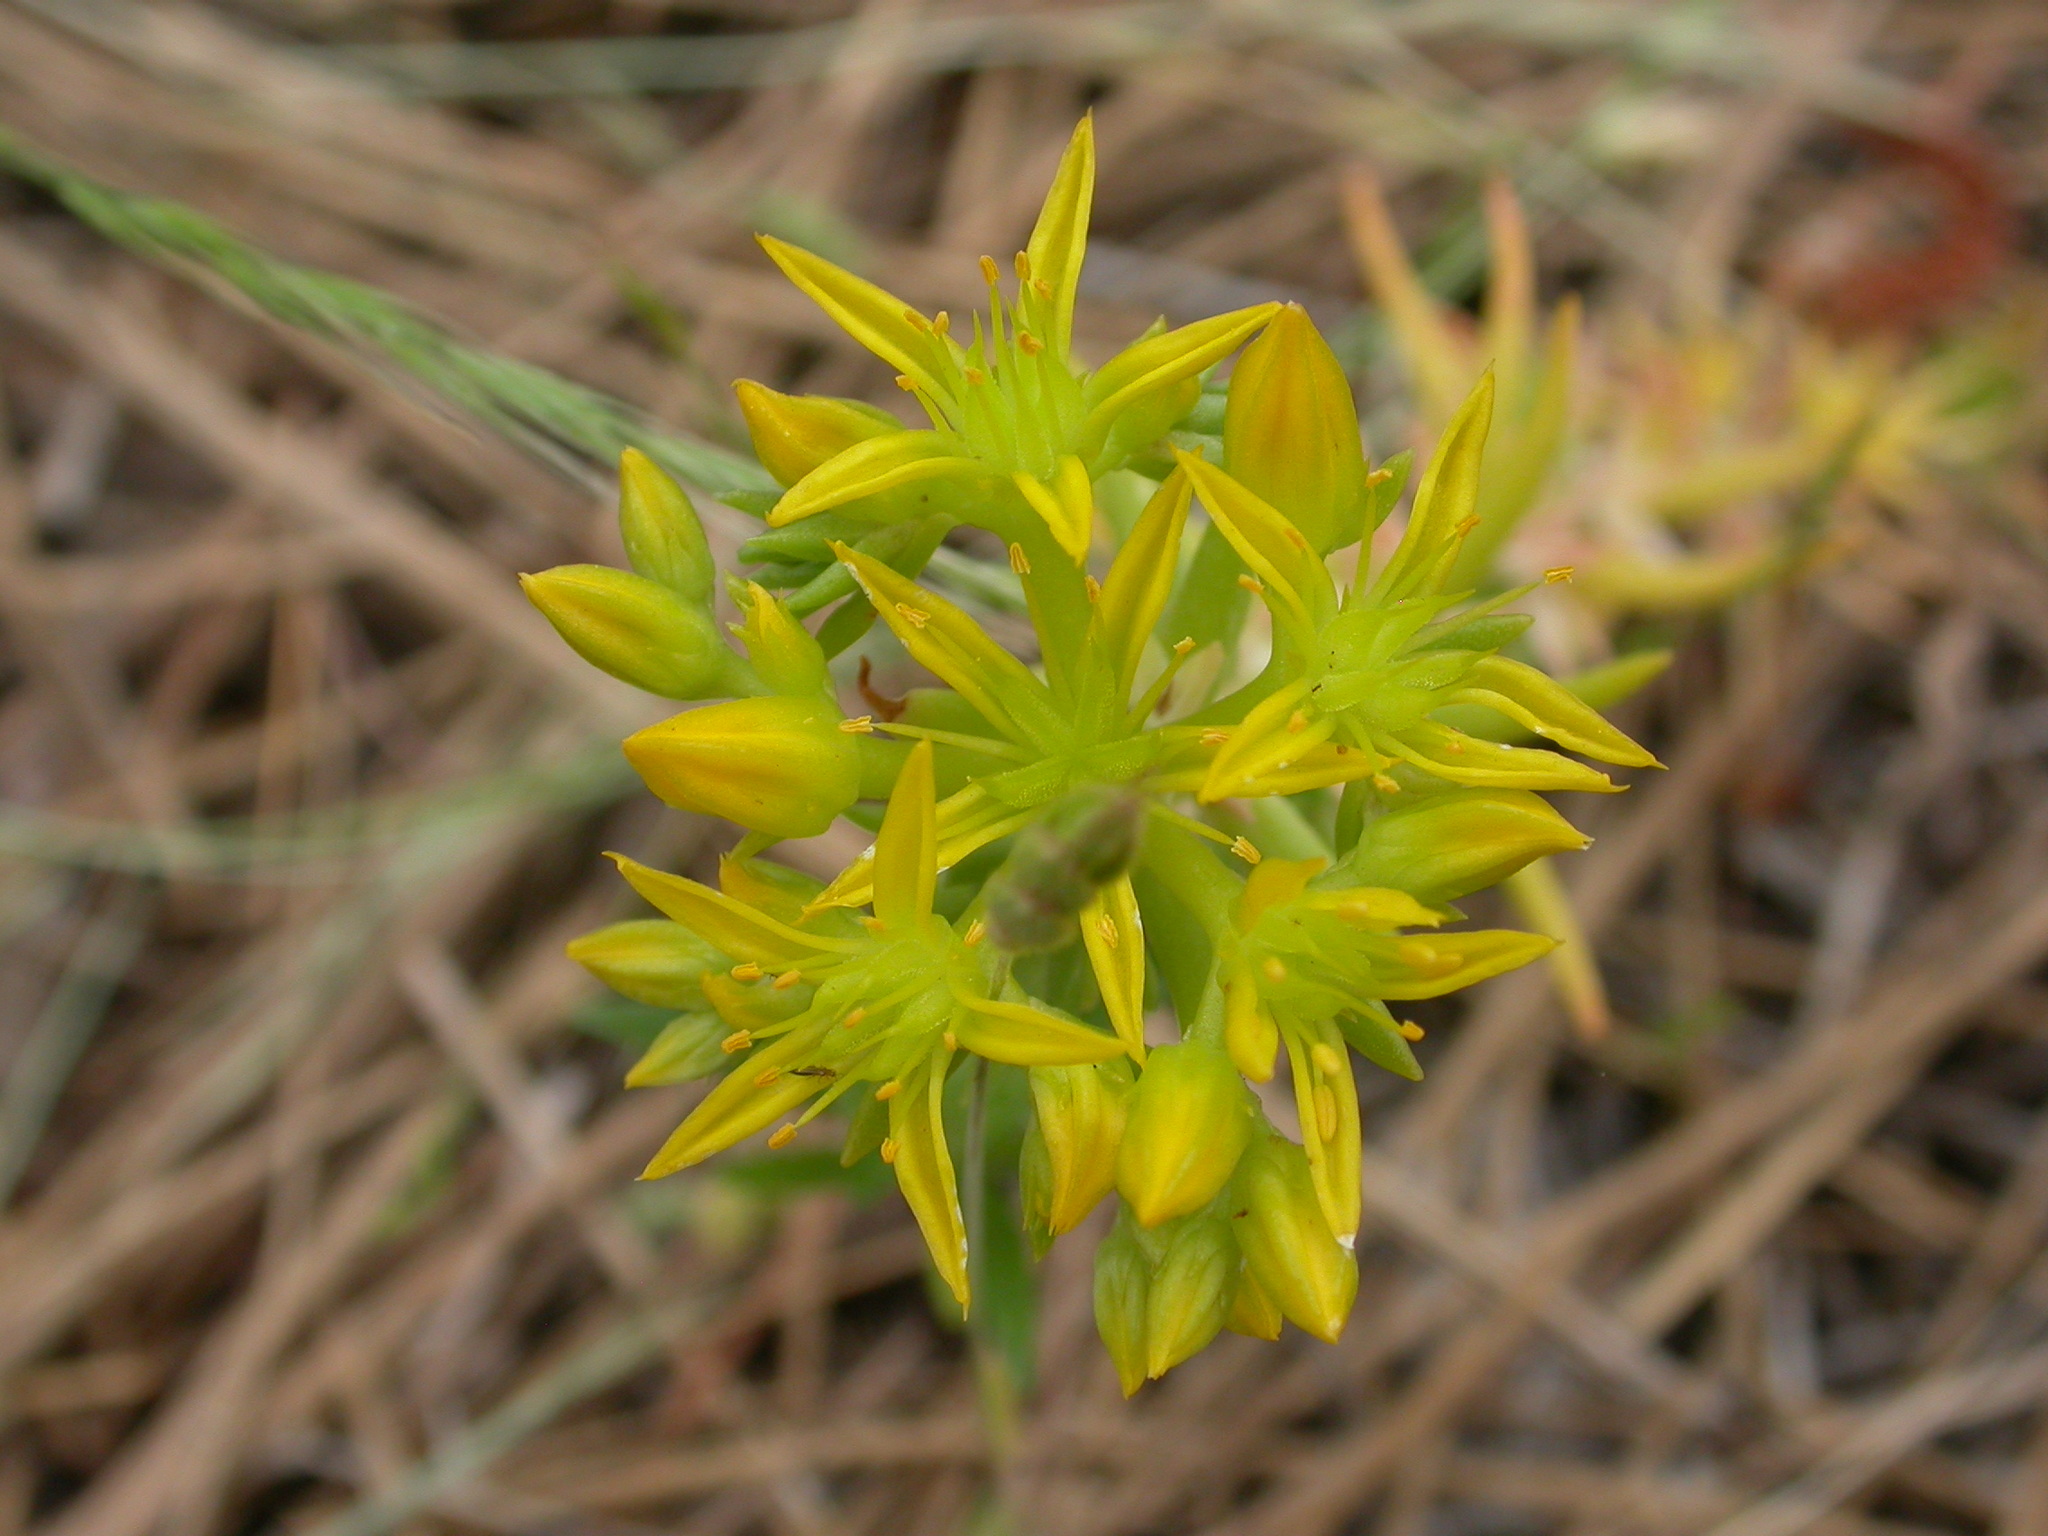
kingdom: Plantae
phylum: Tracheophyta
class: Magnoliopsida
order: Saxifragales
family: Crassulaceae
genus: Sedum
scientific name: Sedum stenopetalum
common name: Narrow-petaled stonecrop
